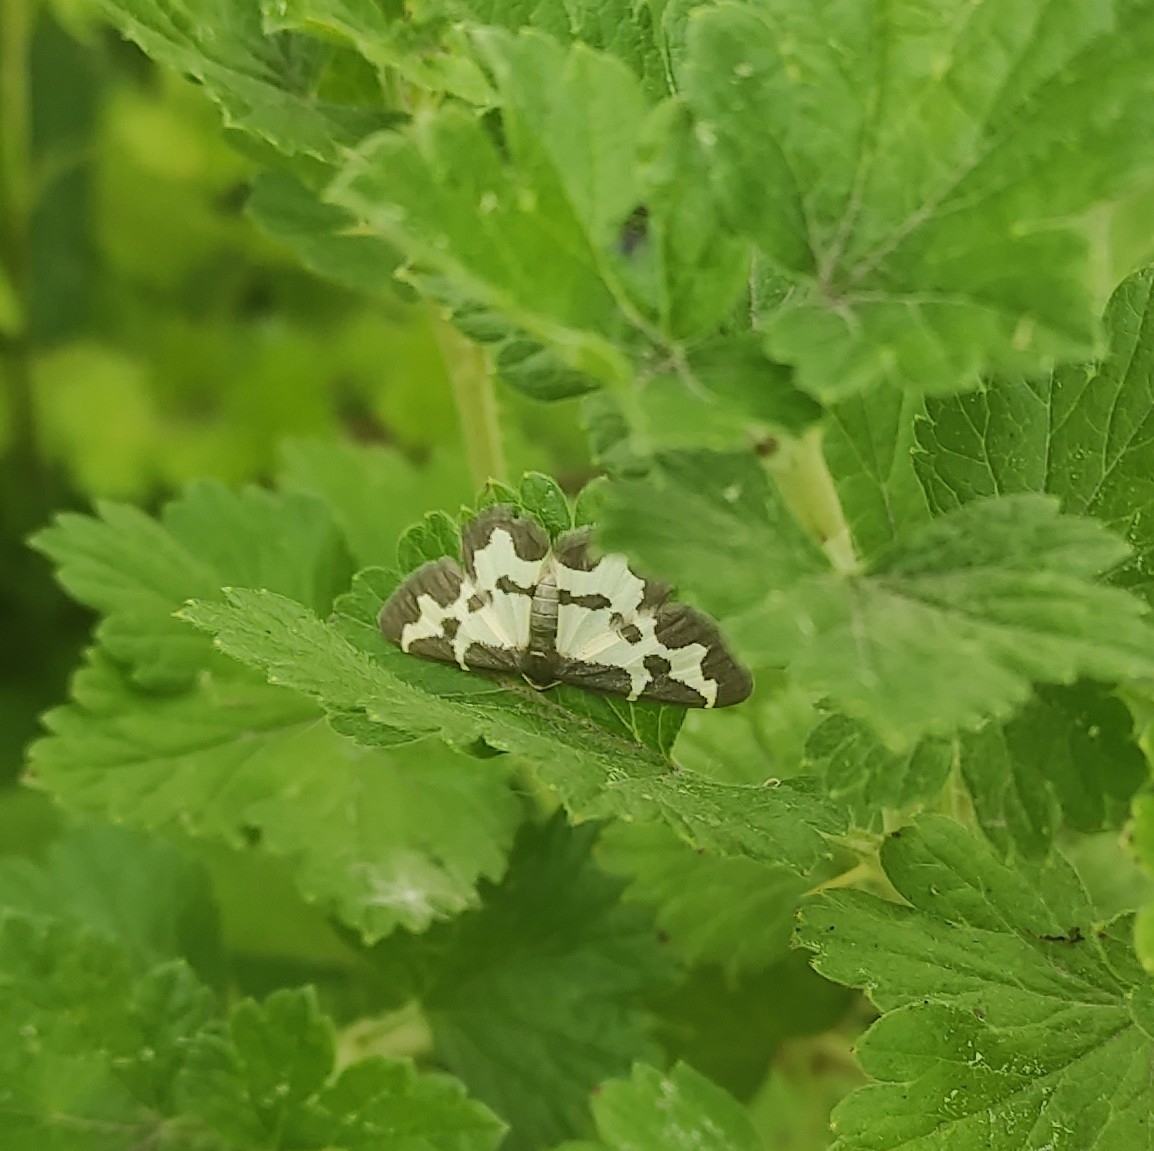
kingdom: Animalia
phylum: Arthropoda
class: Insecta
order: Lepidoptera
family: Geometridae
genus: Lomaspilis
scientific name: Lomaspilis marginata
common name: Clouded border
